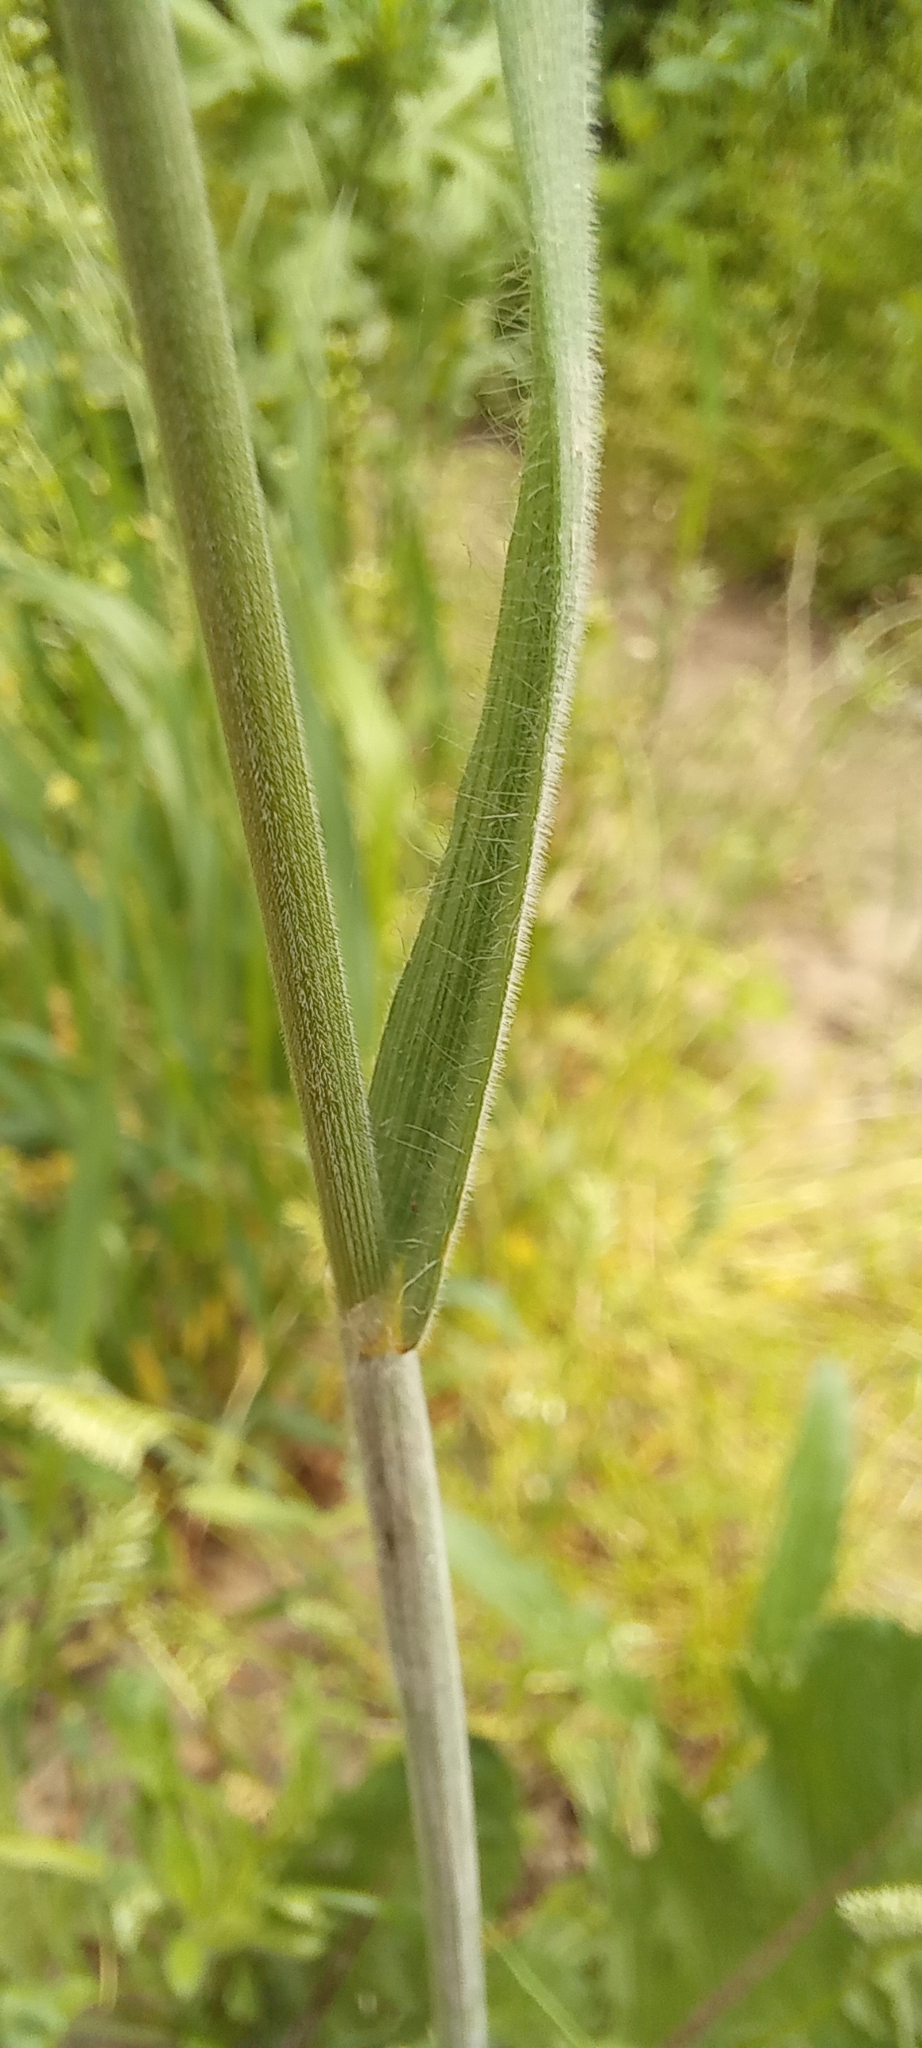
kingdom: Plantae
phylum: Tracheophyta
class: Liliopsida
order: Poales
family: Poaceae
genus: Bromus
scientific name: Bromus hordeaceus
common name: Soft brome
